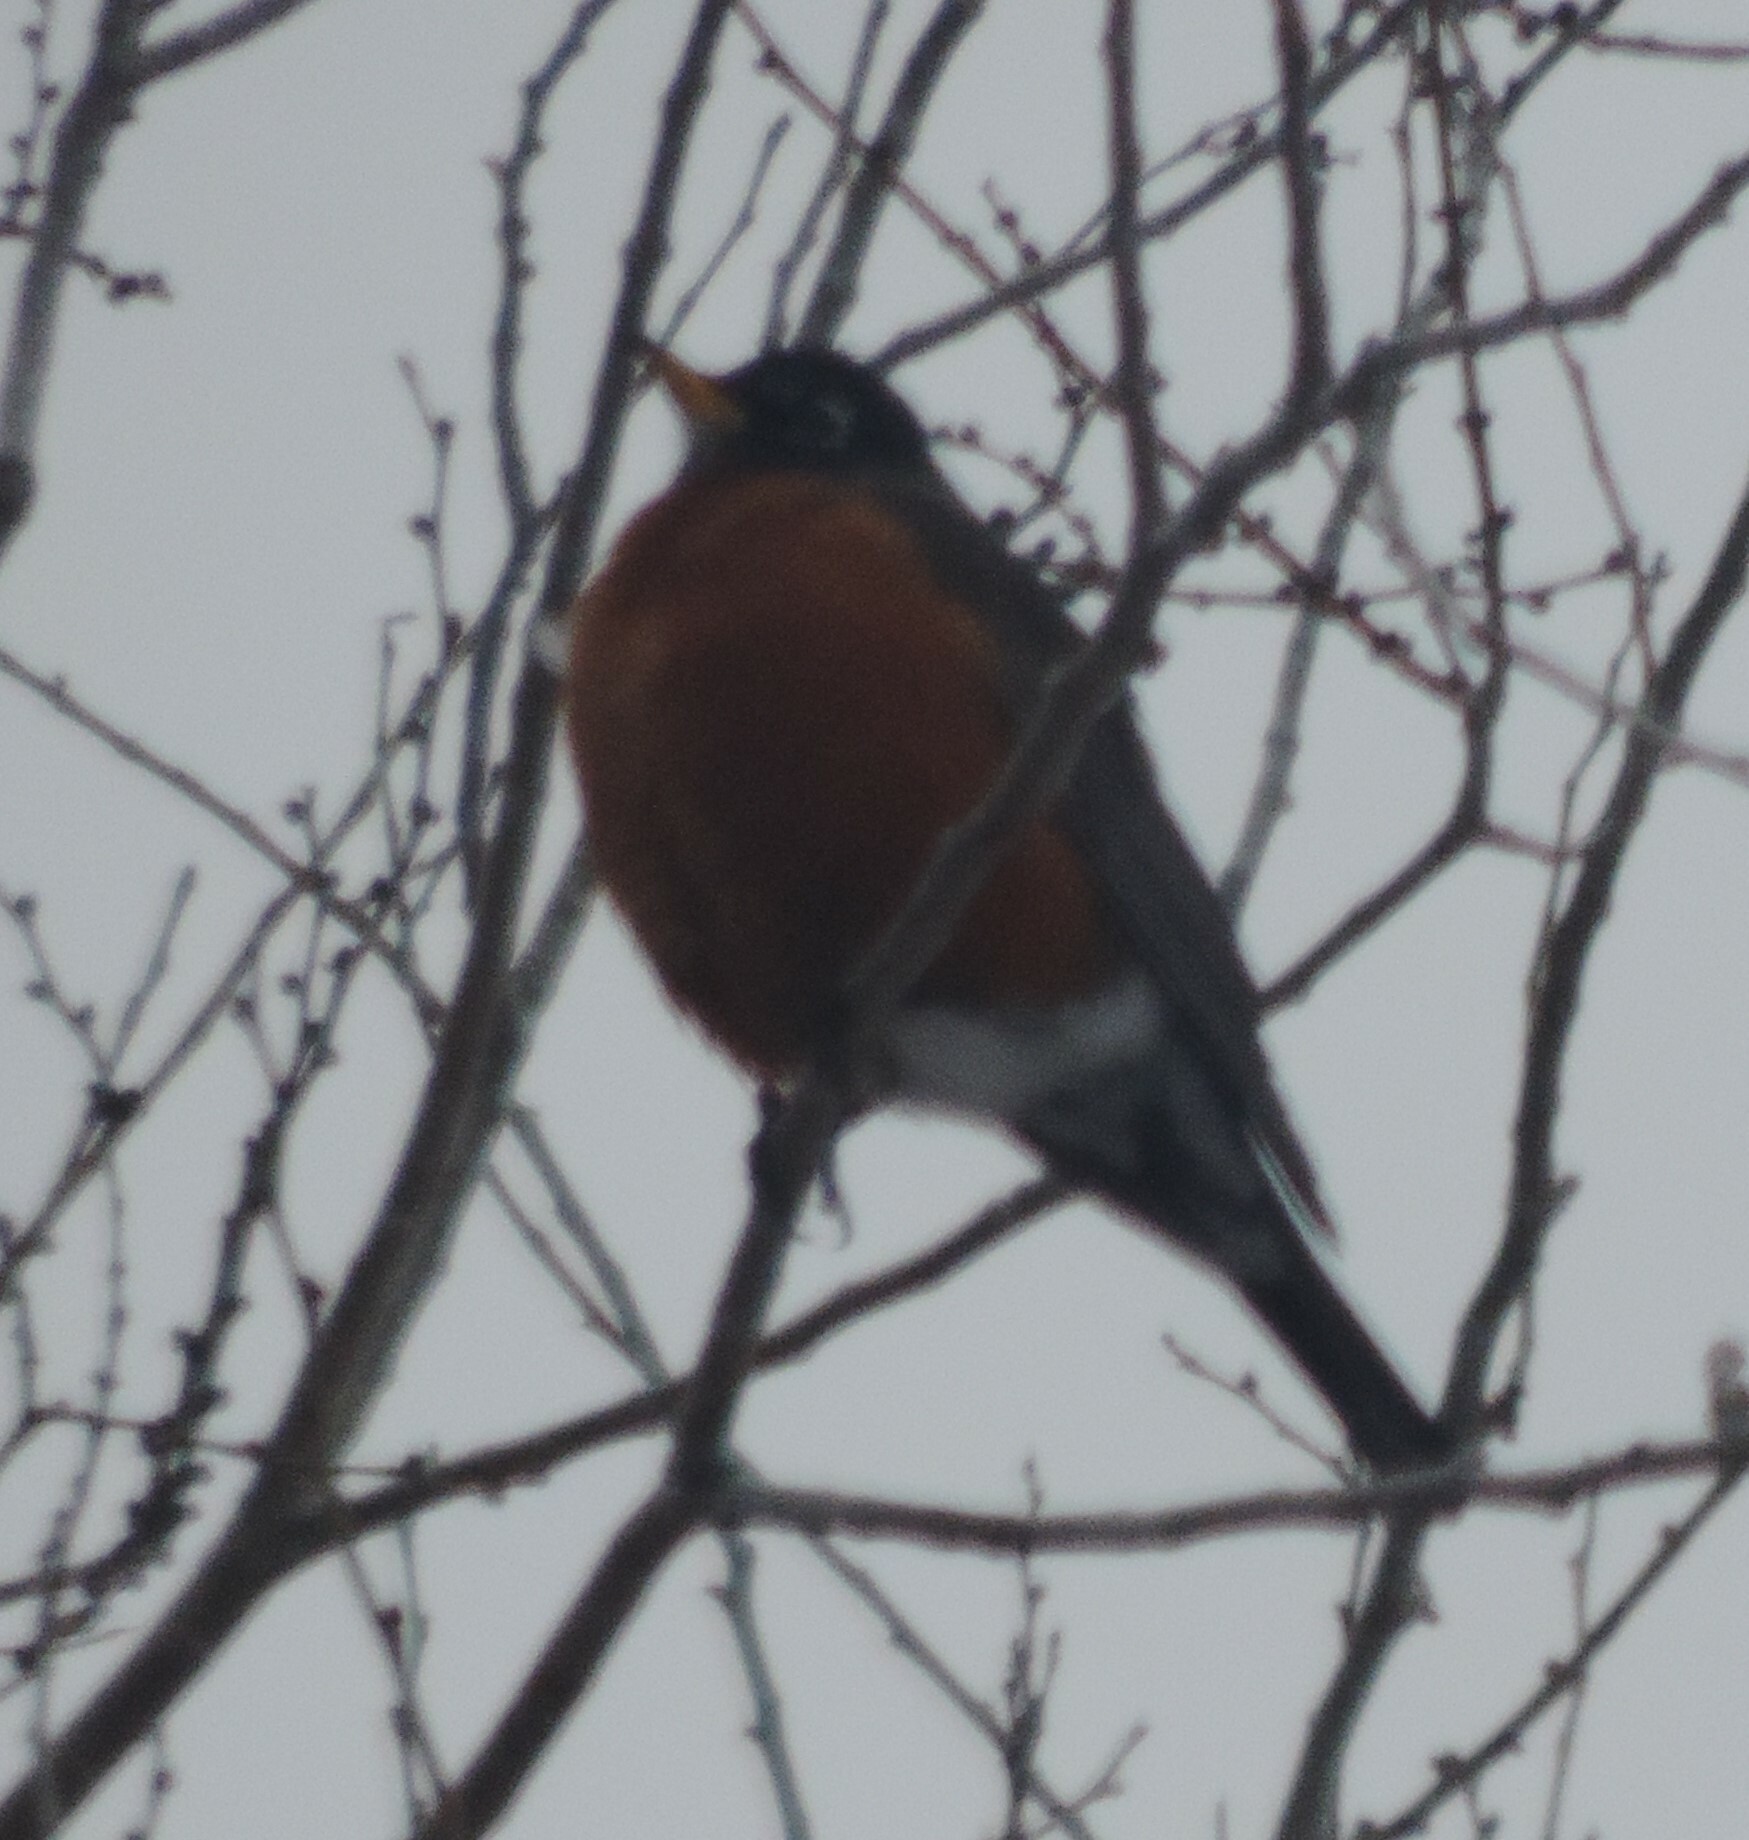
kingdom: Animalia
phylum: Chordata
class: Aves
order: Passeriformes
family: Turdidae
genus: Turdus
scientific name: Turdus migratorius
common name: American robin
